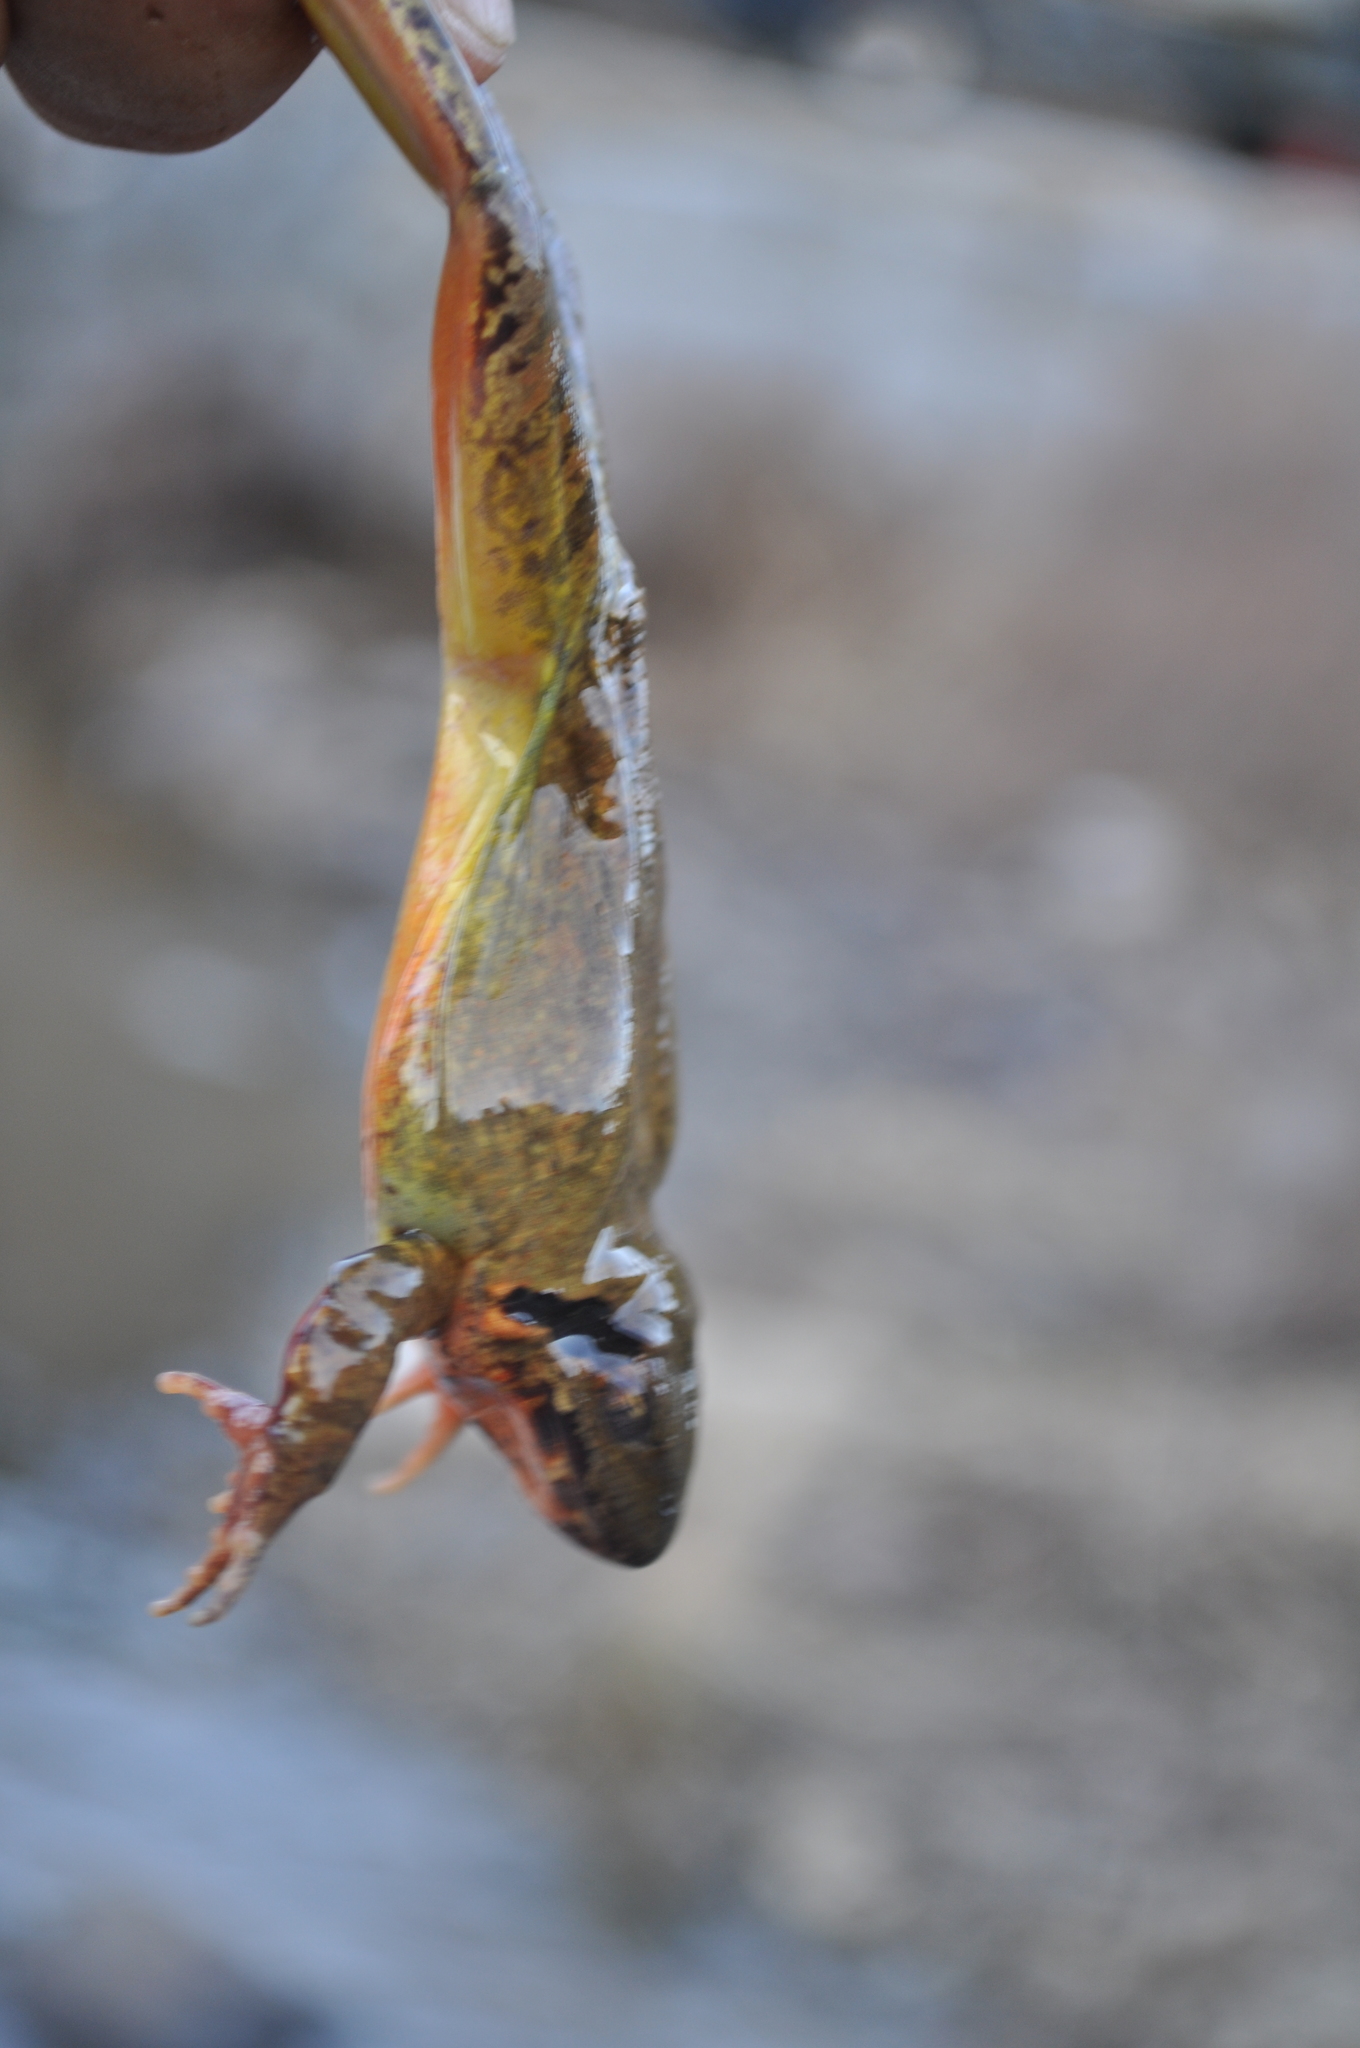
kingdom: Animalia
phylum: Chordata
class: Amphibia
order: Anura
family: Ranidae
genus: Rana
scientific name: Rana uenoi
